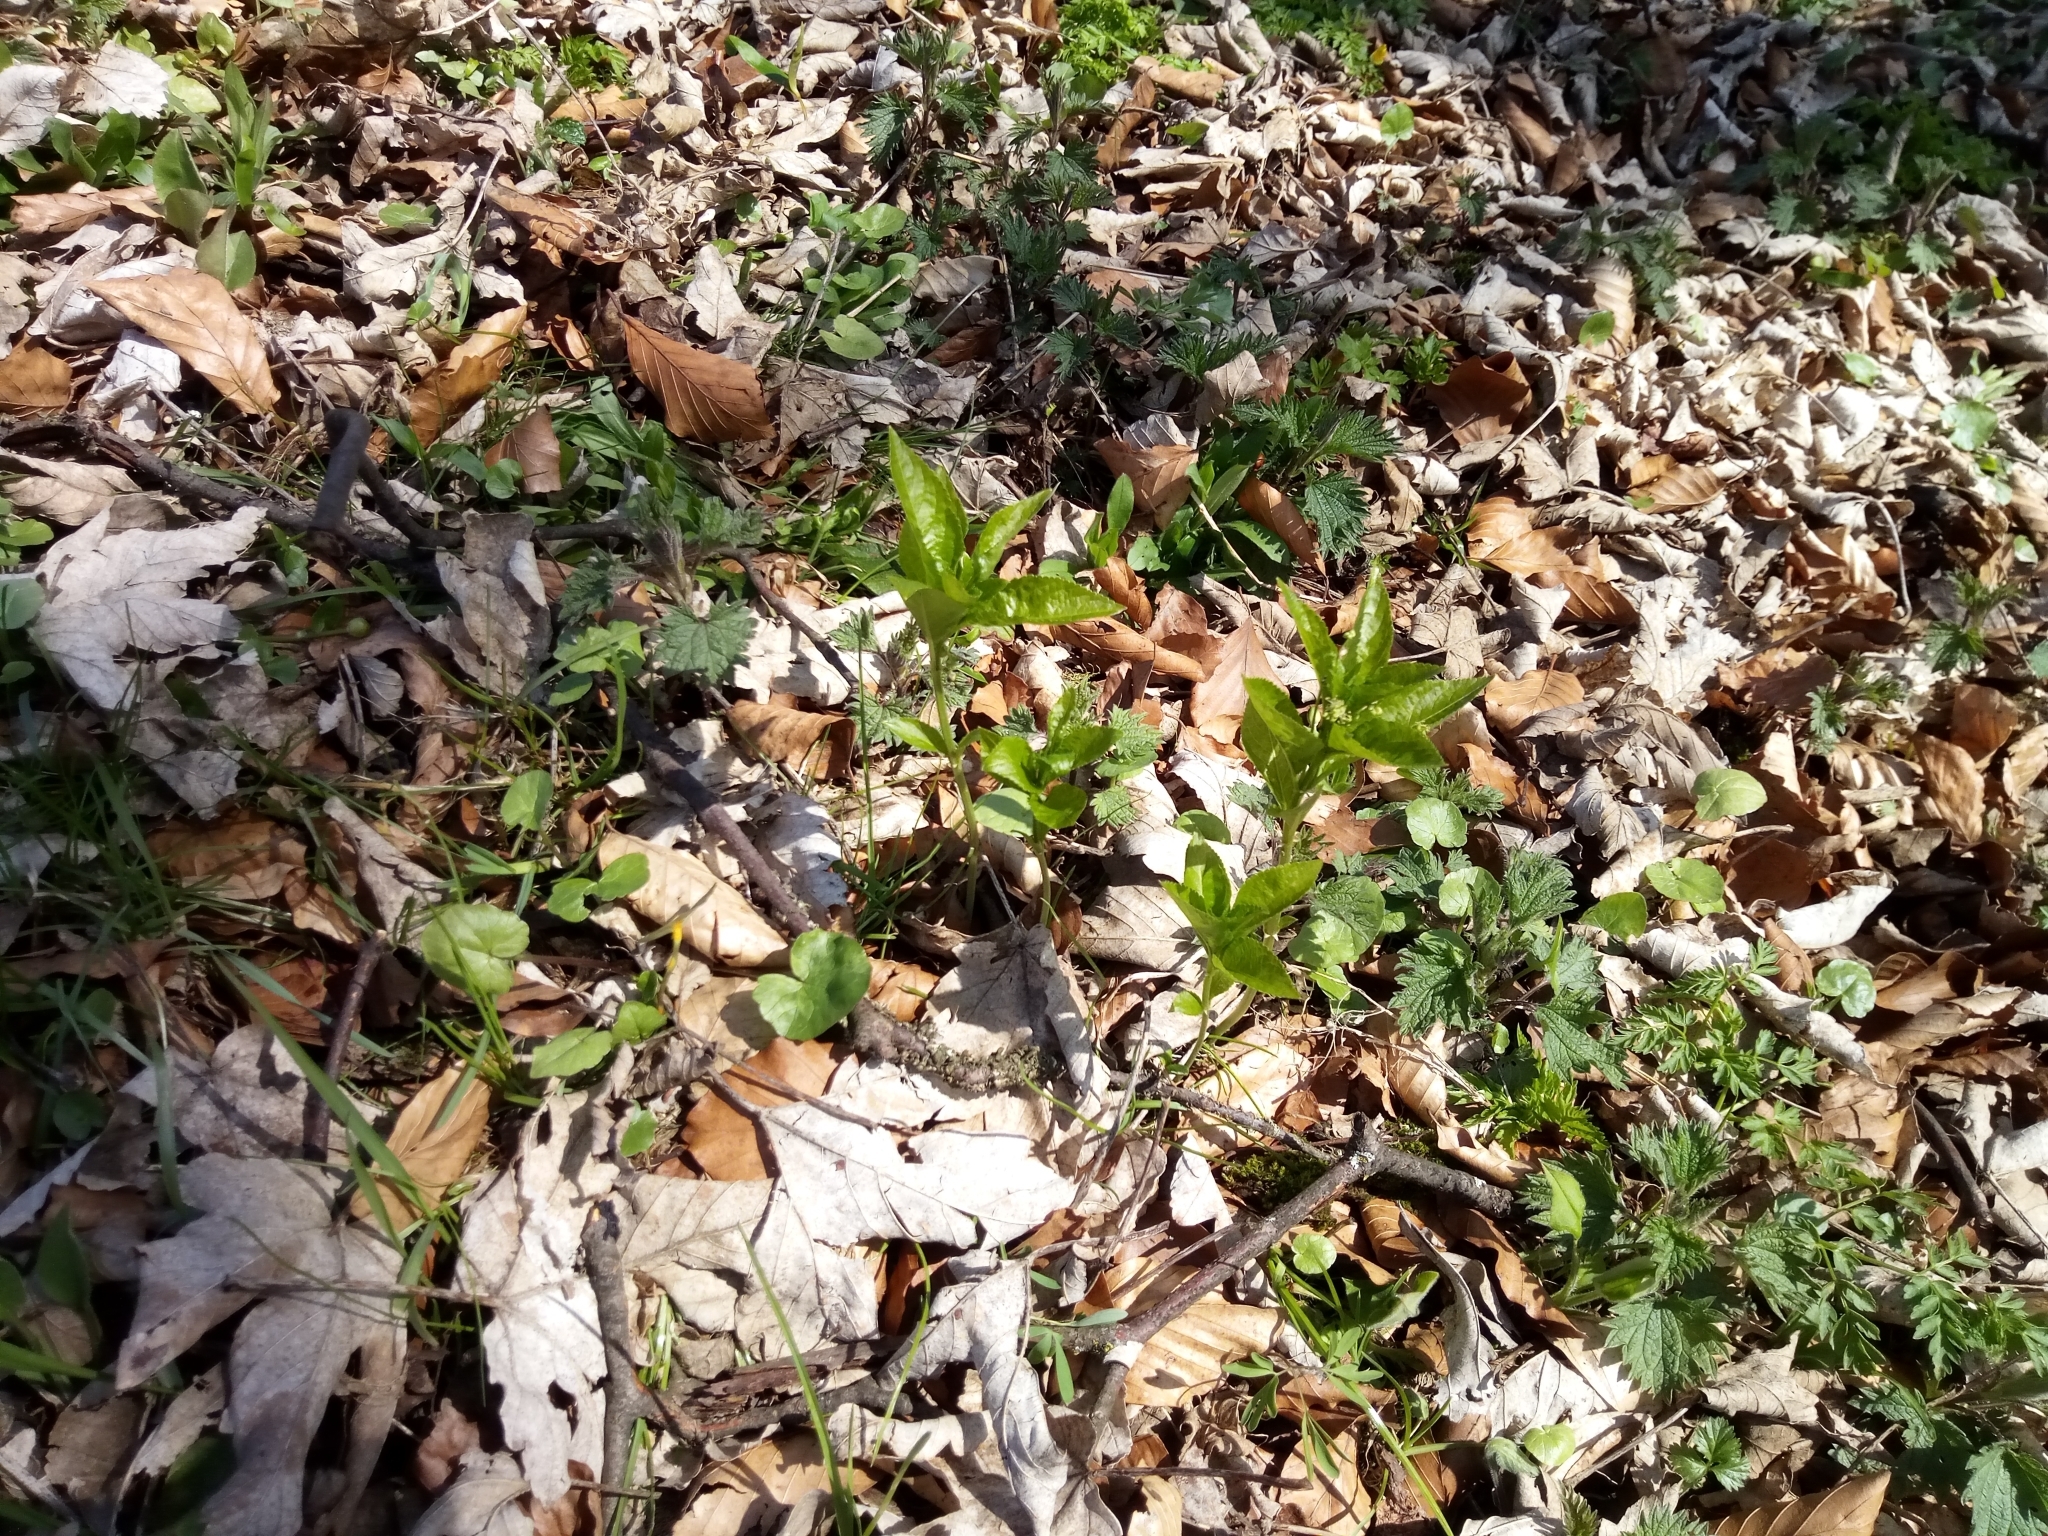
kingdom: Plantae
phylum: Tracheophyta
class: Magnoliopsida
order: Malpighiales
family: Euphorbiaceae
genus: Mercurialis
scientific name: Mercurialis perennis
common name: Dog mercury
